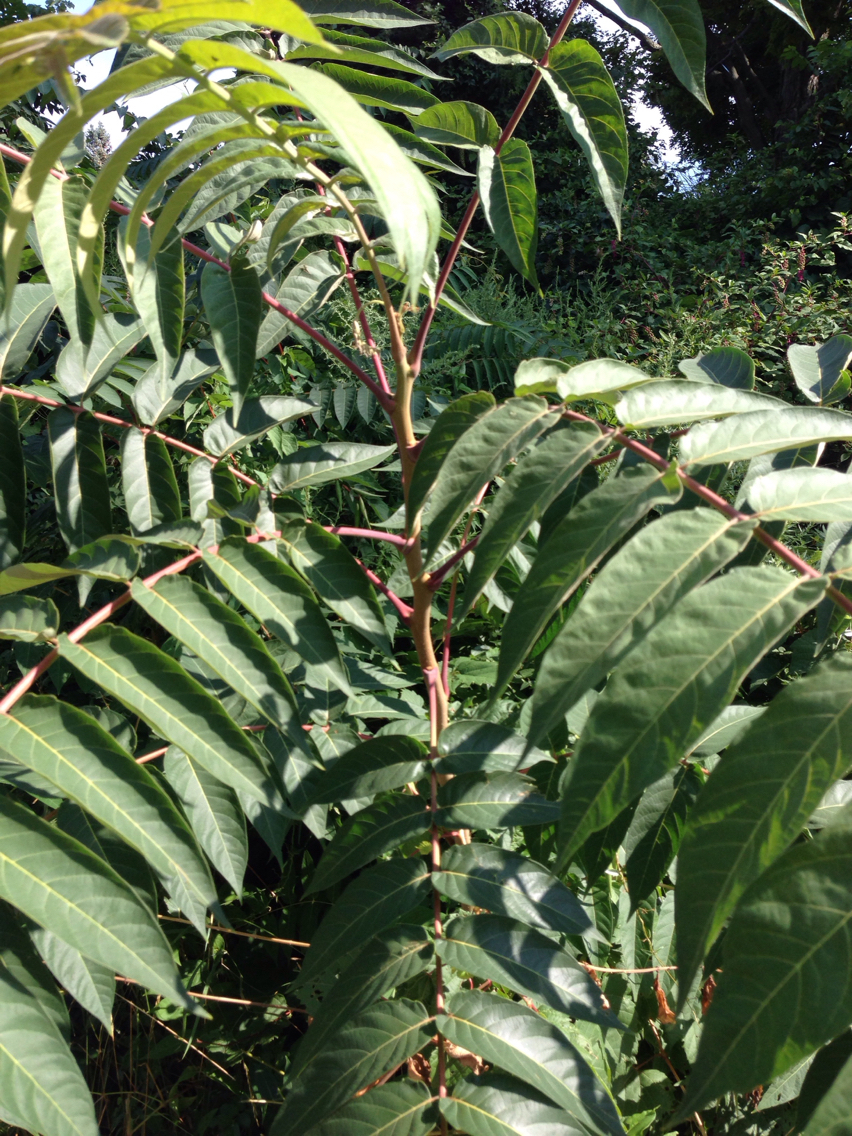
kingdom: Plantae
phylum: Tracheophyta
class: Magnoliopsida
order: Sapindales
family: Simaroubaceae
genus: Ailanthus
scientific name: Ailanthus altissima
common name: Tree-of-heaven
